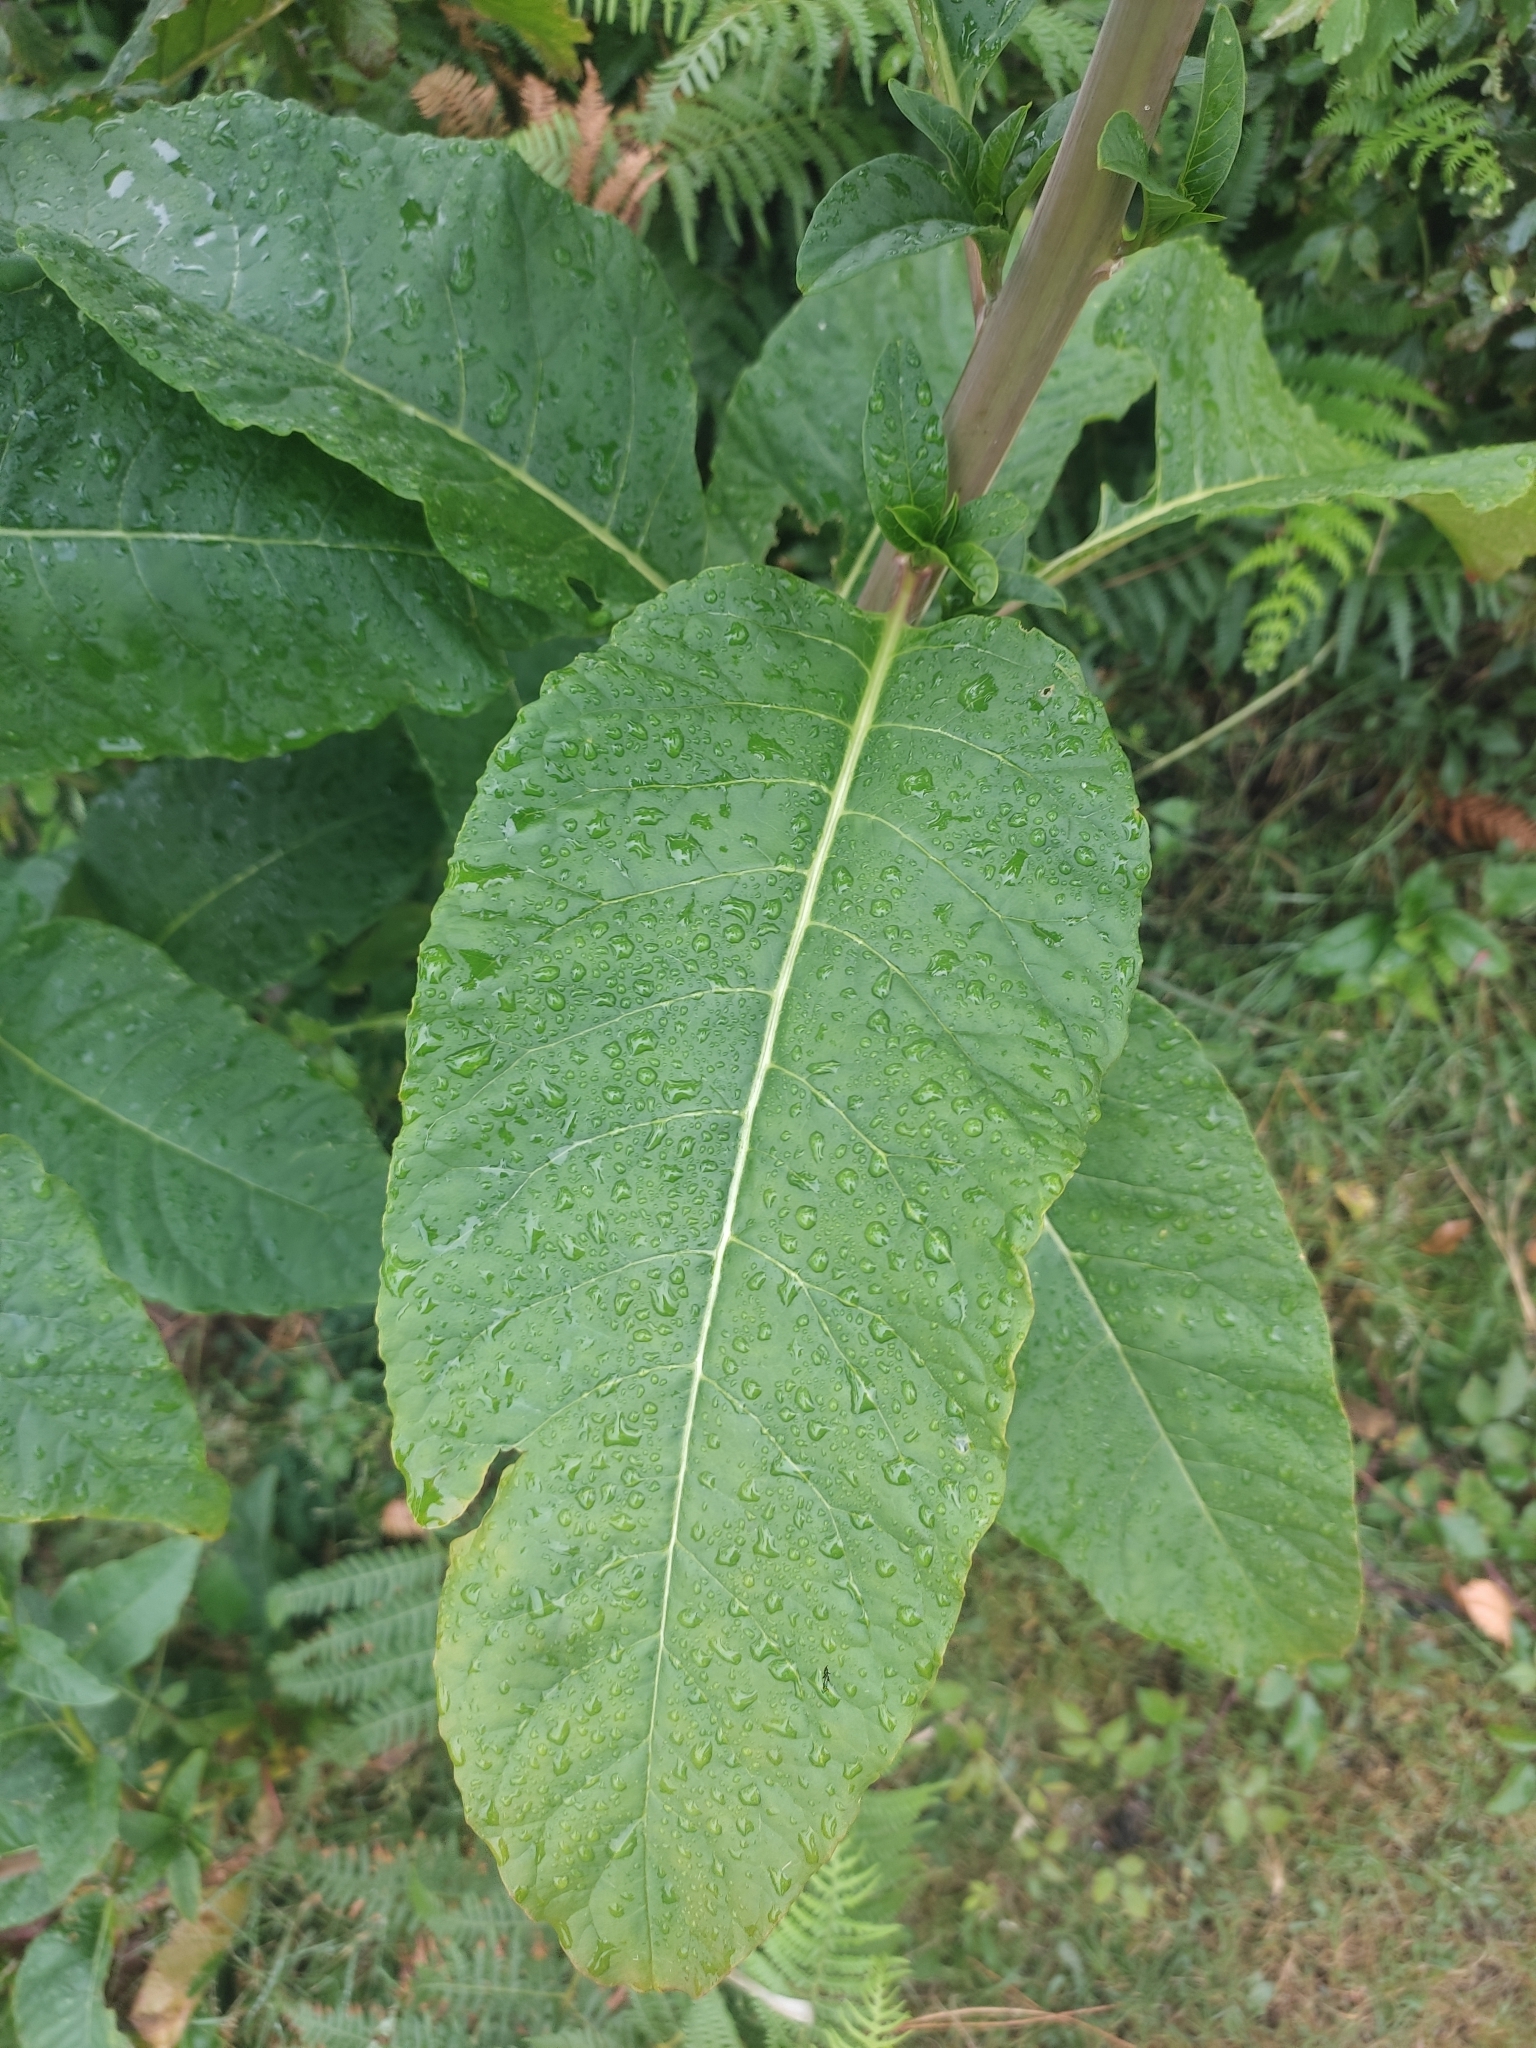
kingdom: Plantae
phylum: Tracheophyta
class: Magnoliopsida
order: Caryophyllales
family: Phytolaccaceae
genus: Phytolacca
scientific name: Phytolacca americana
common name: American pokeweed
